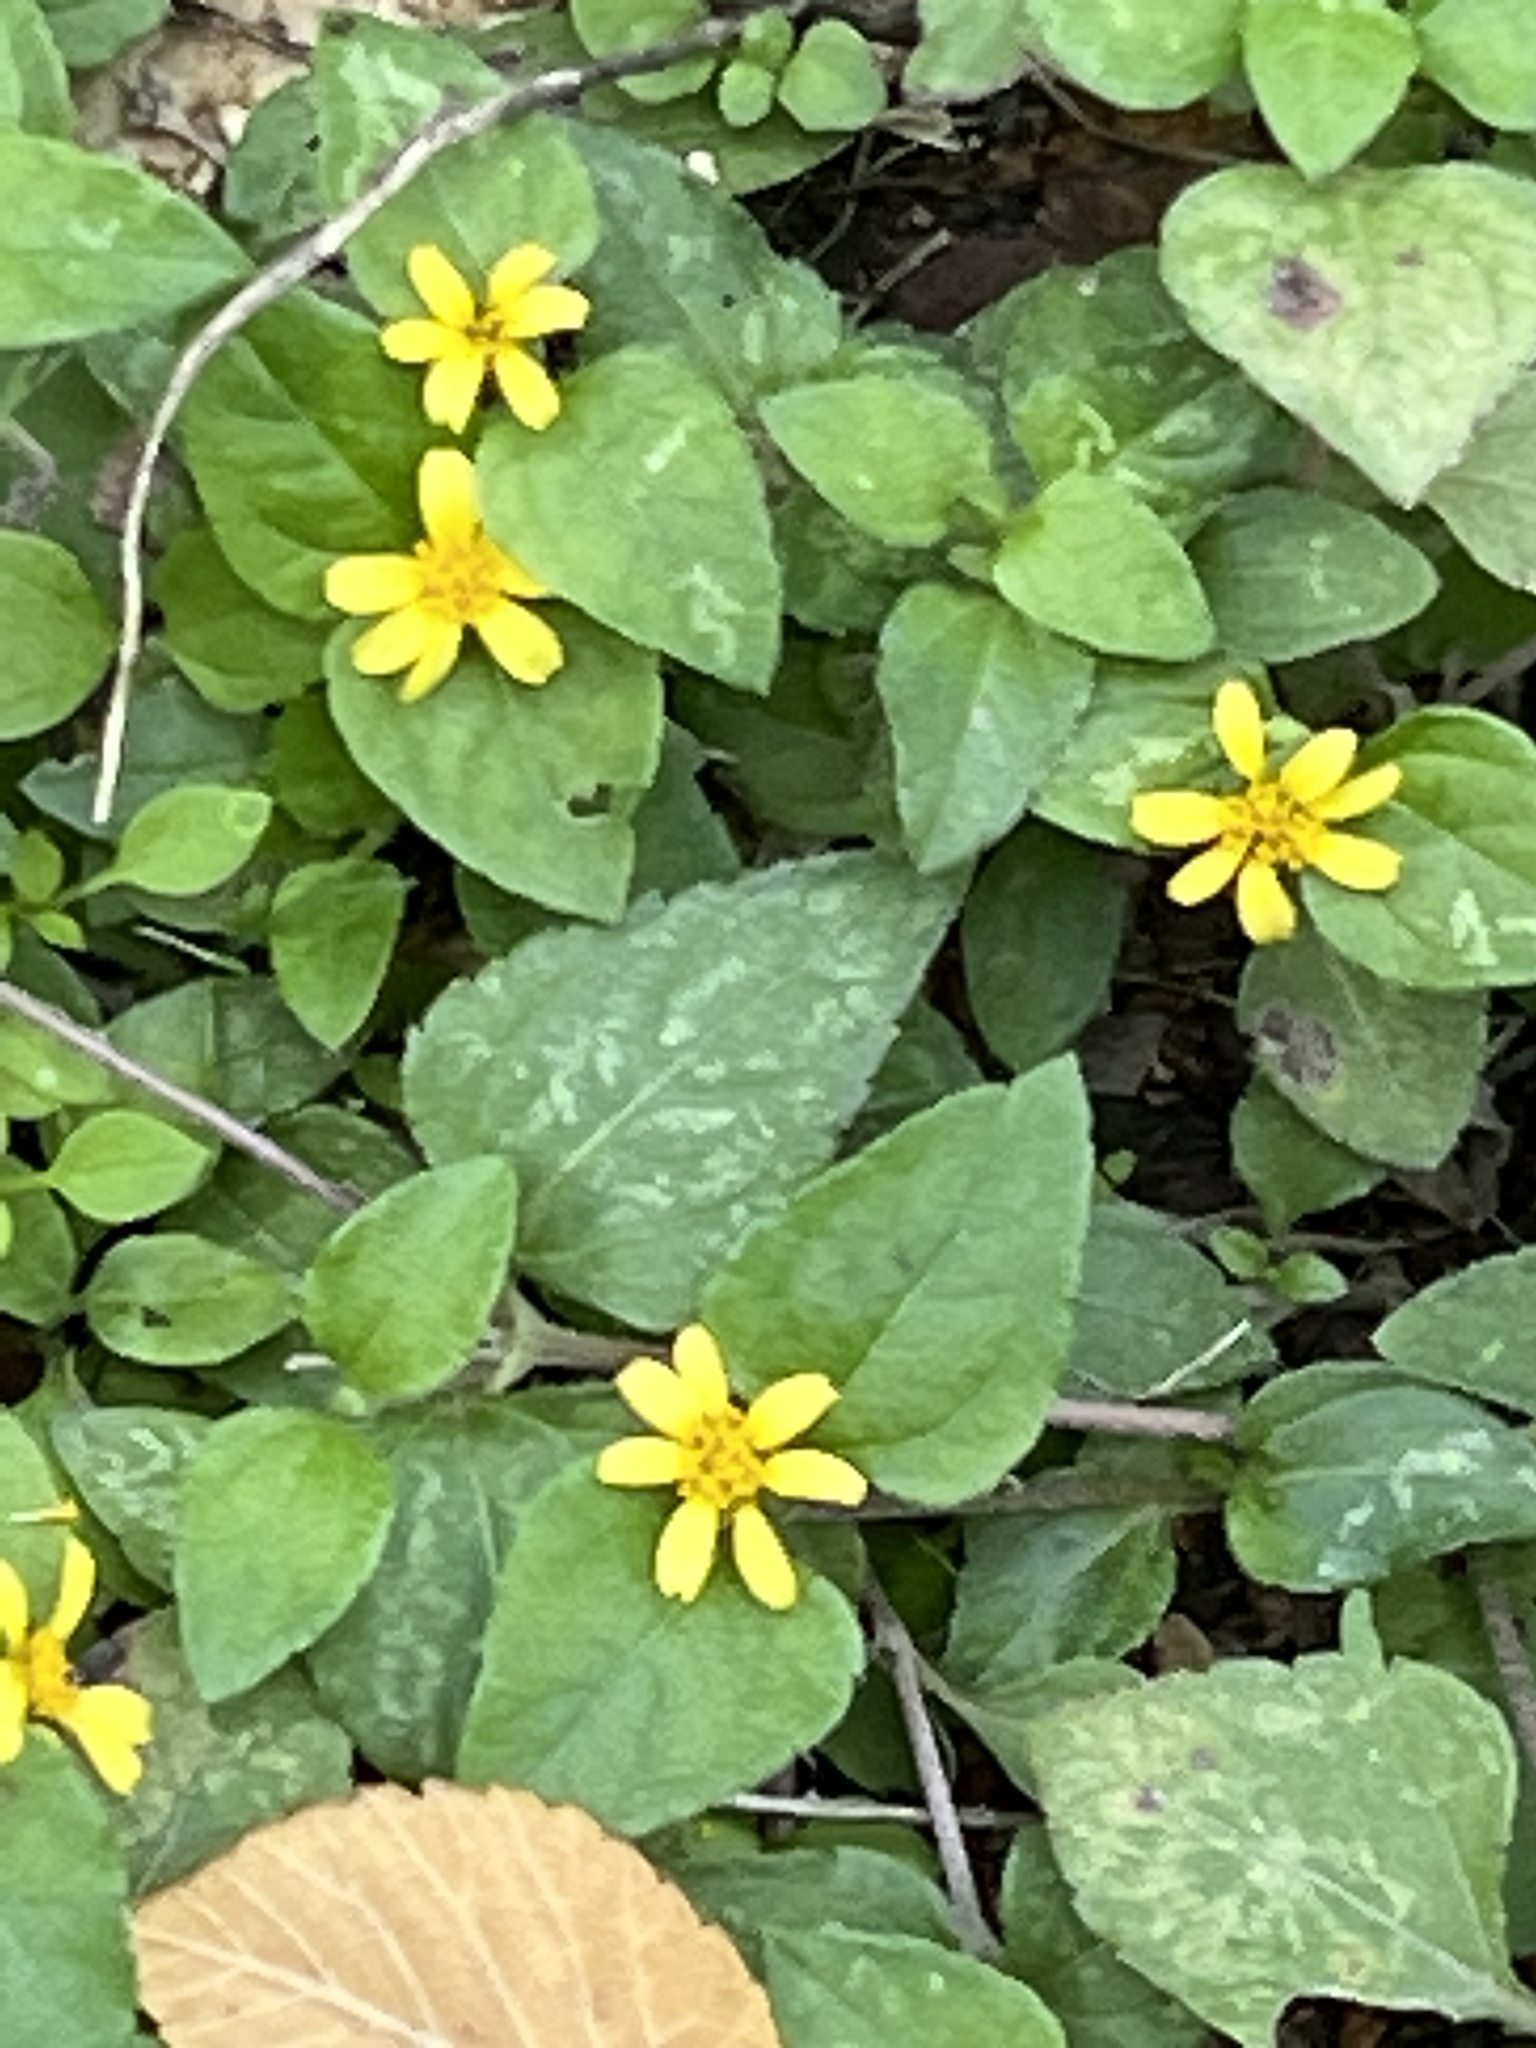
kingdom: Plantae
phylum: Tracheophyta
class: Magnoliopsida
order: Asterales
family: Asteraceae
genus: Calyptocarpus
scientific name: Calyptocarpus vialis
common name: Straggler daisy
